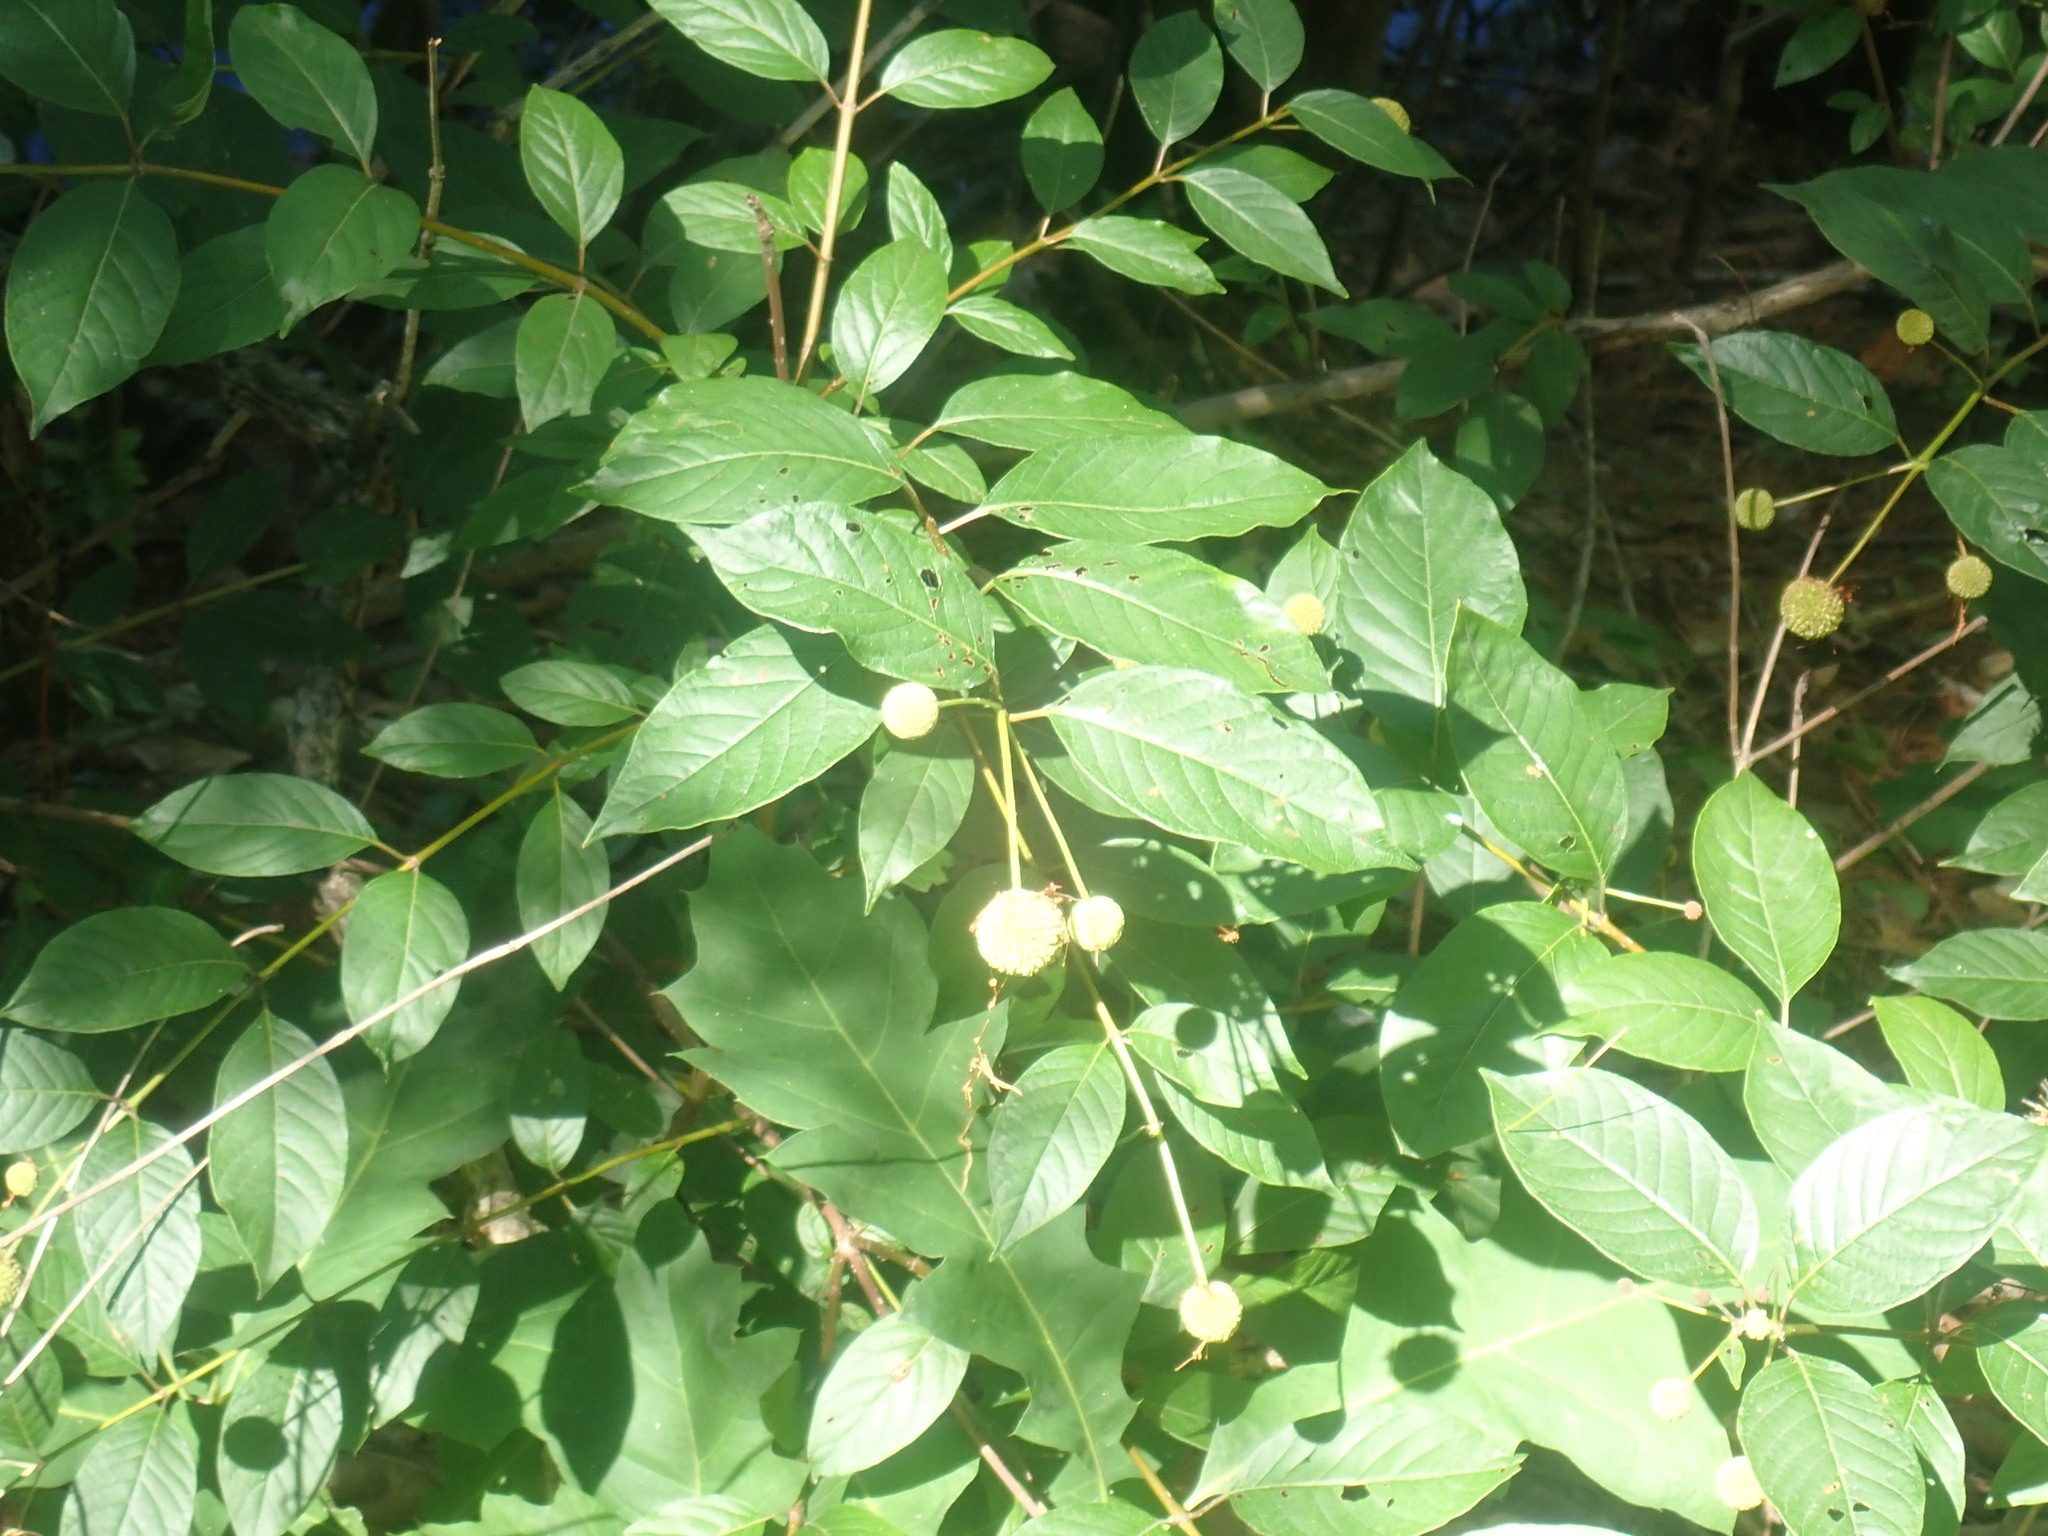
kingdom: Plantae
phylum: Tracheophyta
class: Magnoliopsida
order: Gentianales
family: Rubiaceae
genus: Cephalanthus
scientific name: Cephalanthus occidentalis
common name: Button-willow
